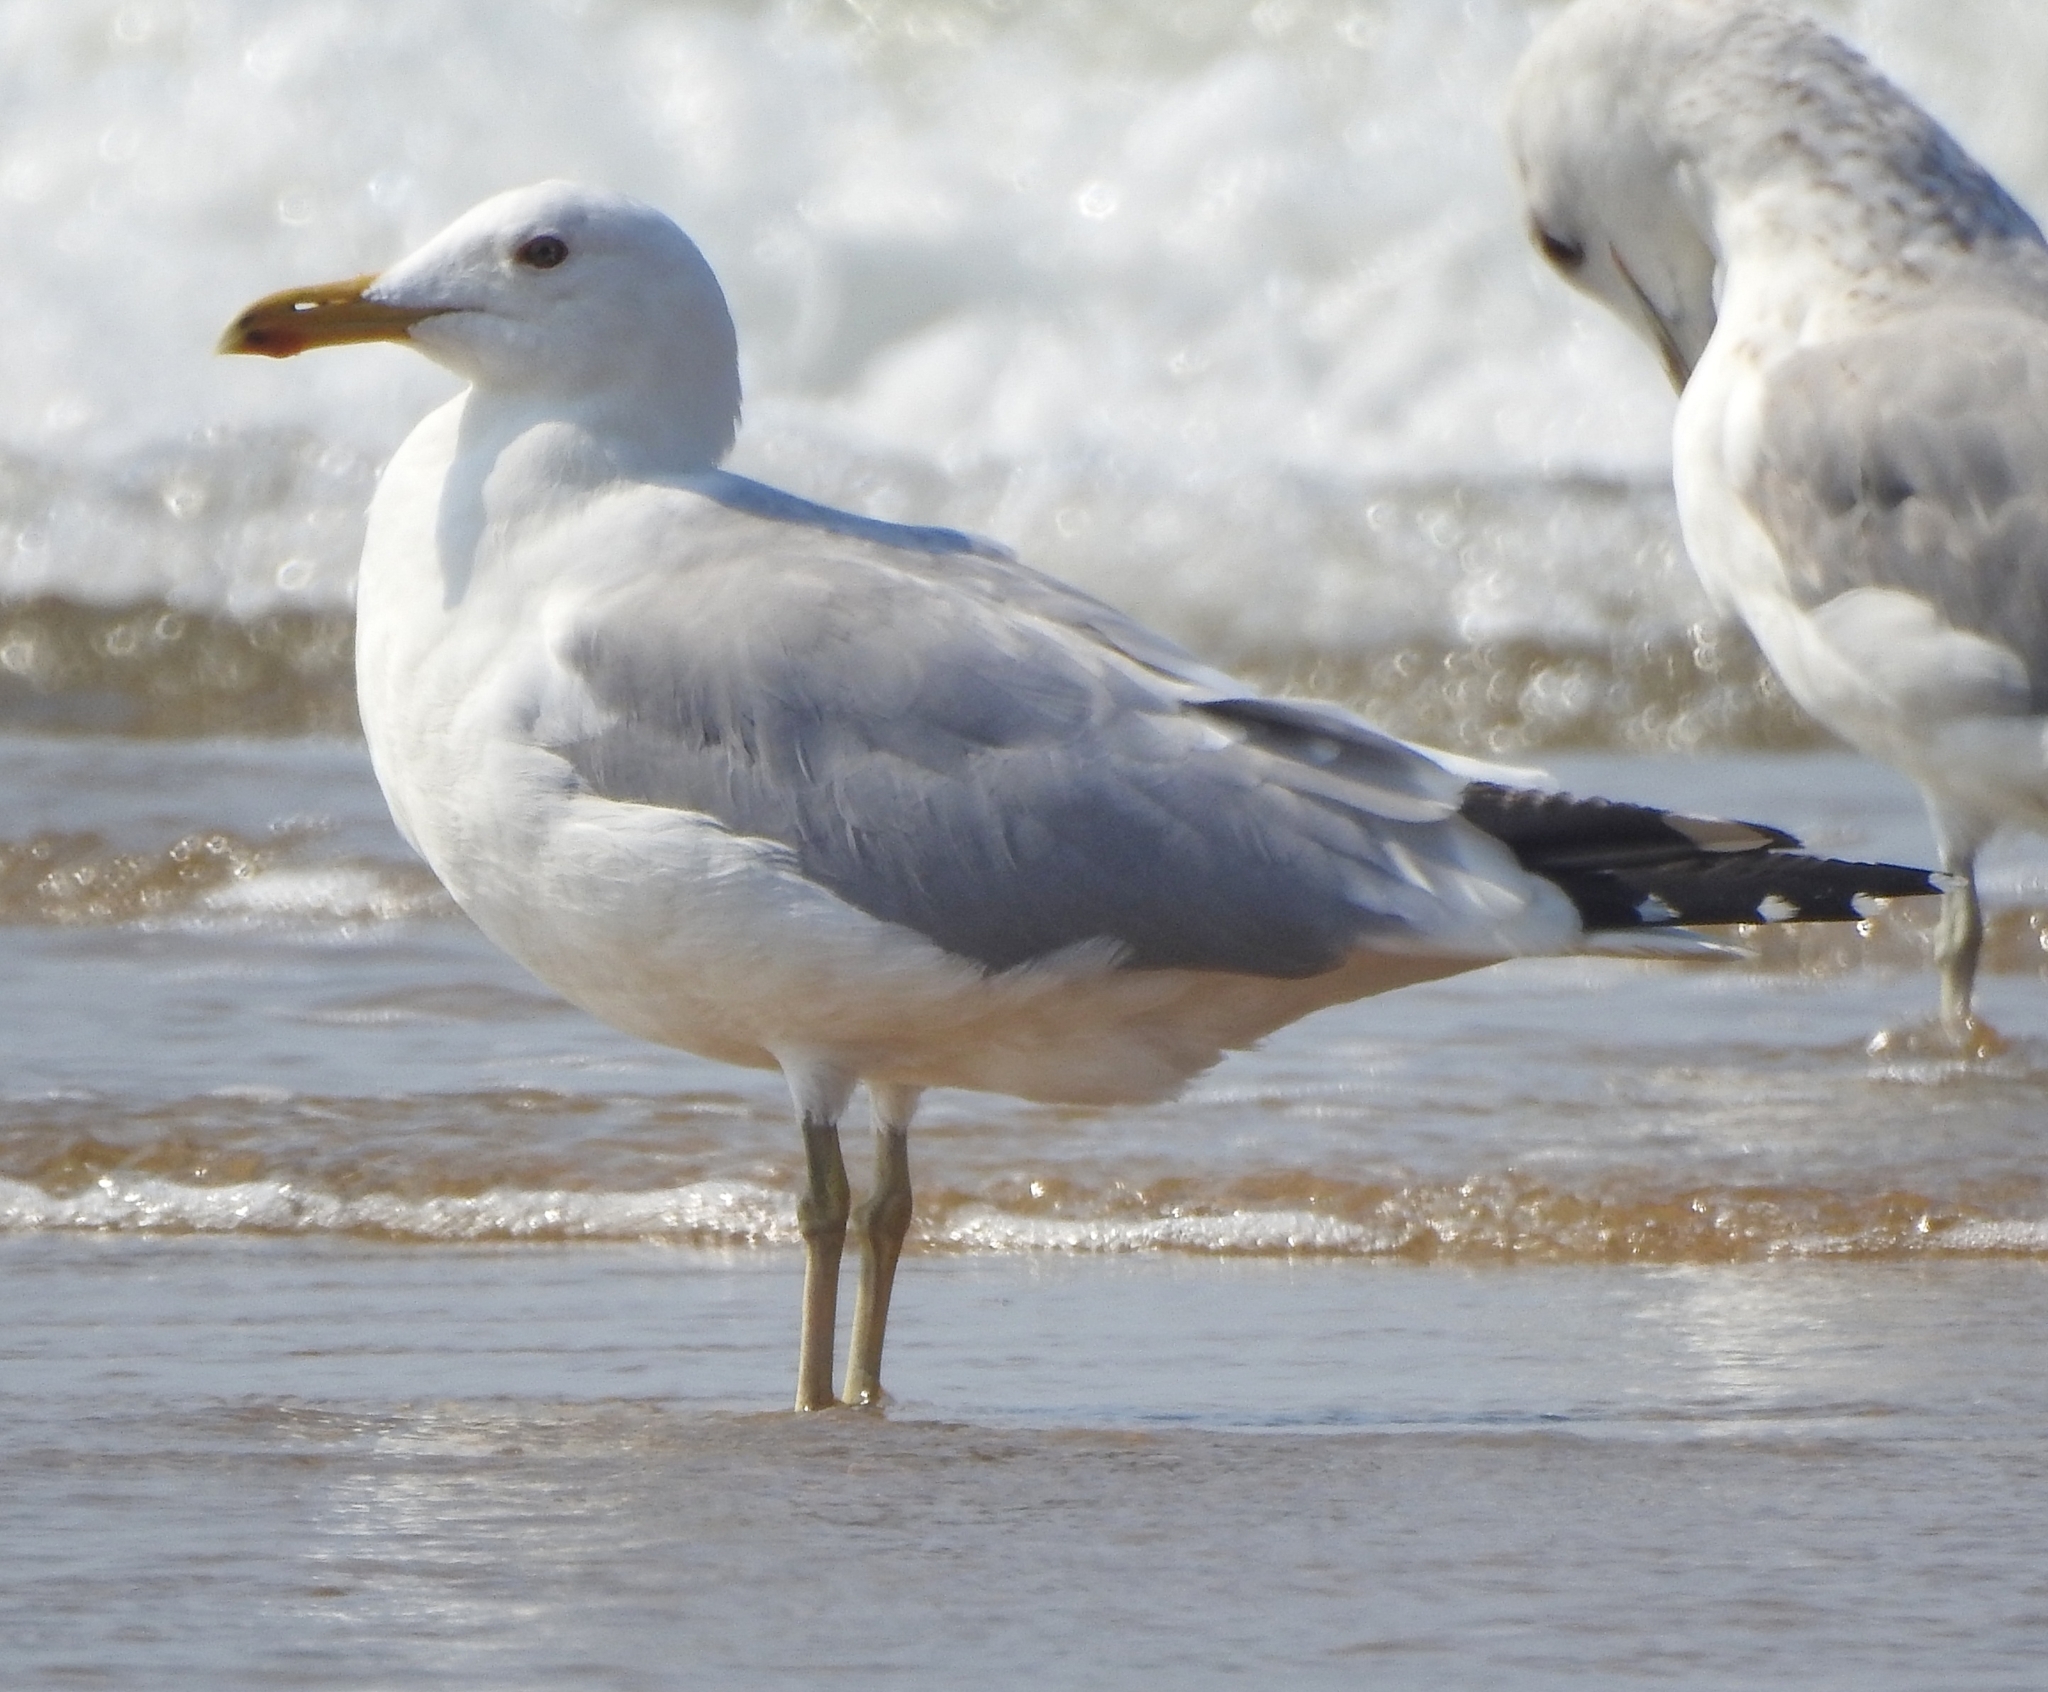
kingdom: Animalia
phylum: Chordata
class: Aves
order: Charadriiformes
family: Laridae
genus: Larus
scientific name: Larus fuscus
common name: Lesser black-backed gull
